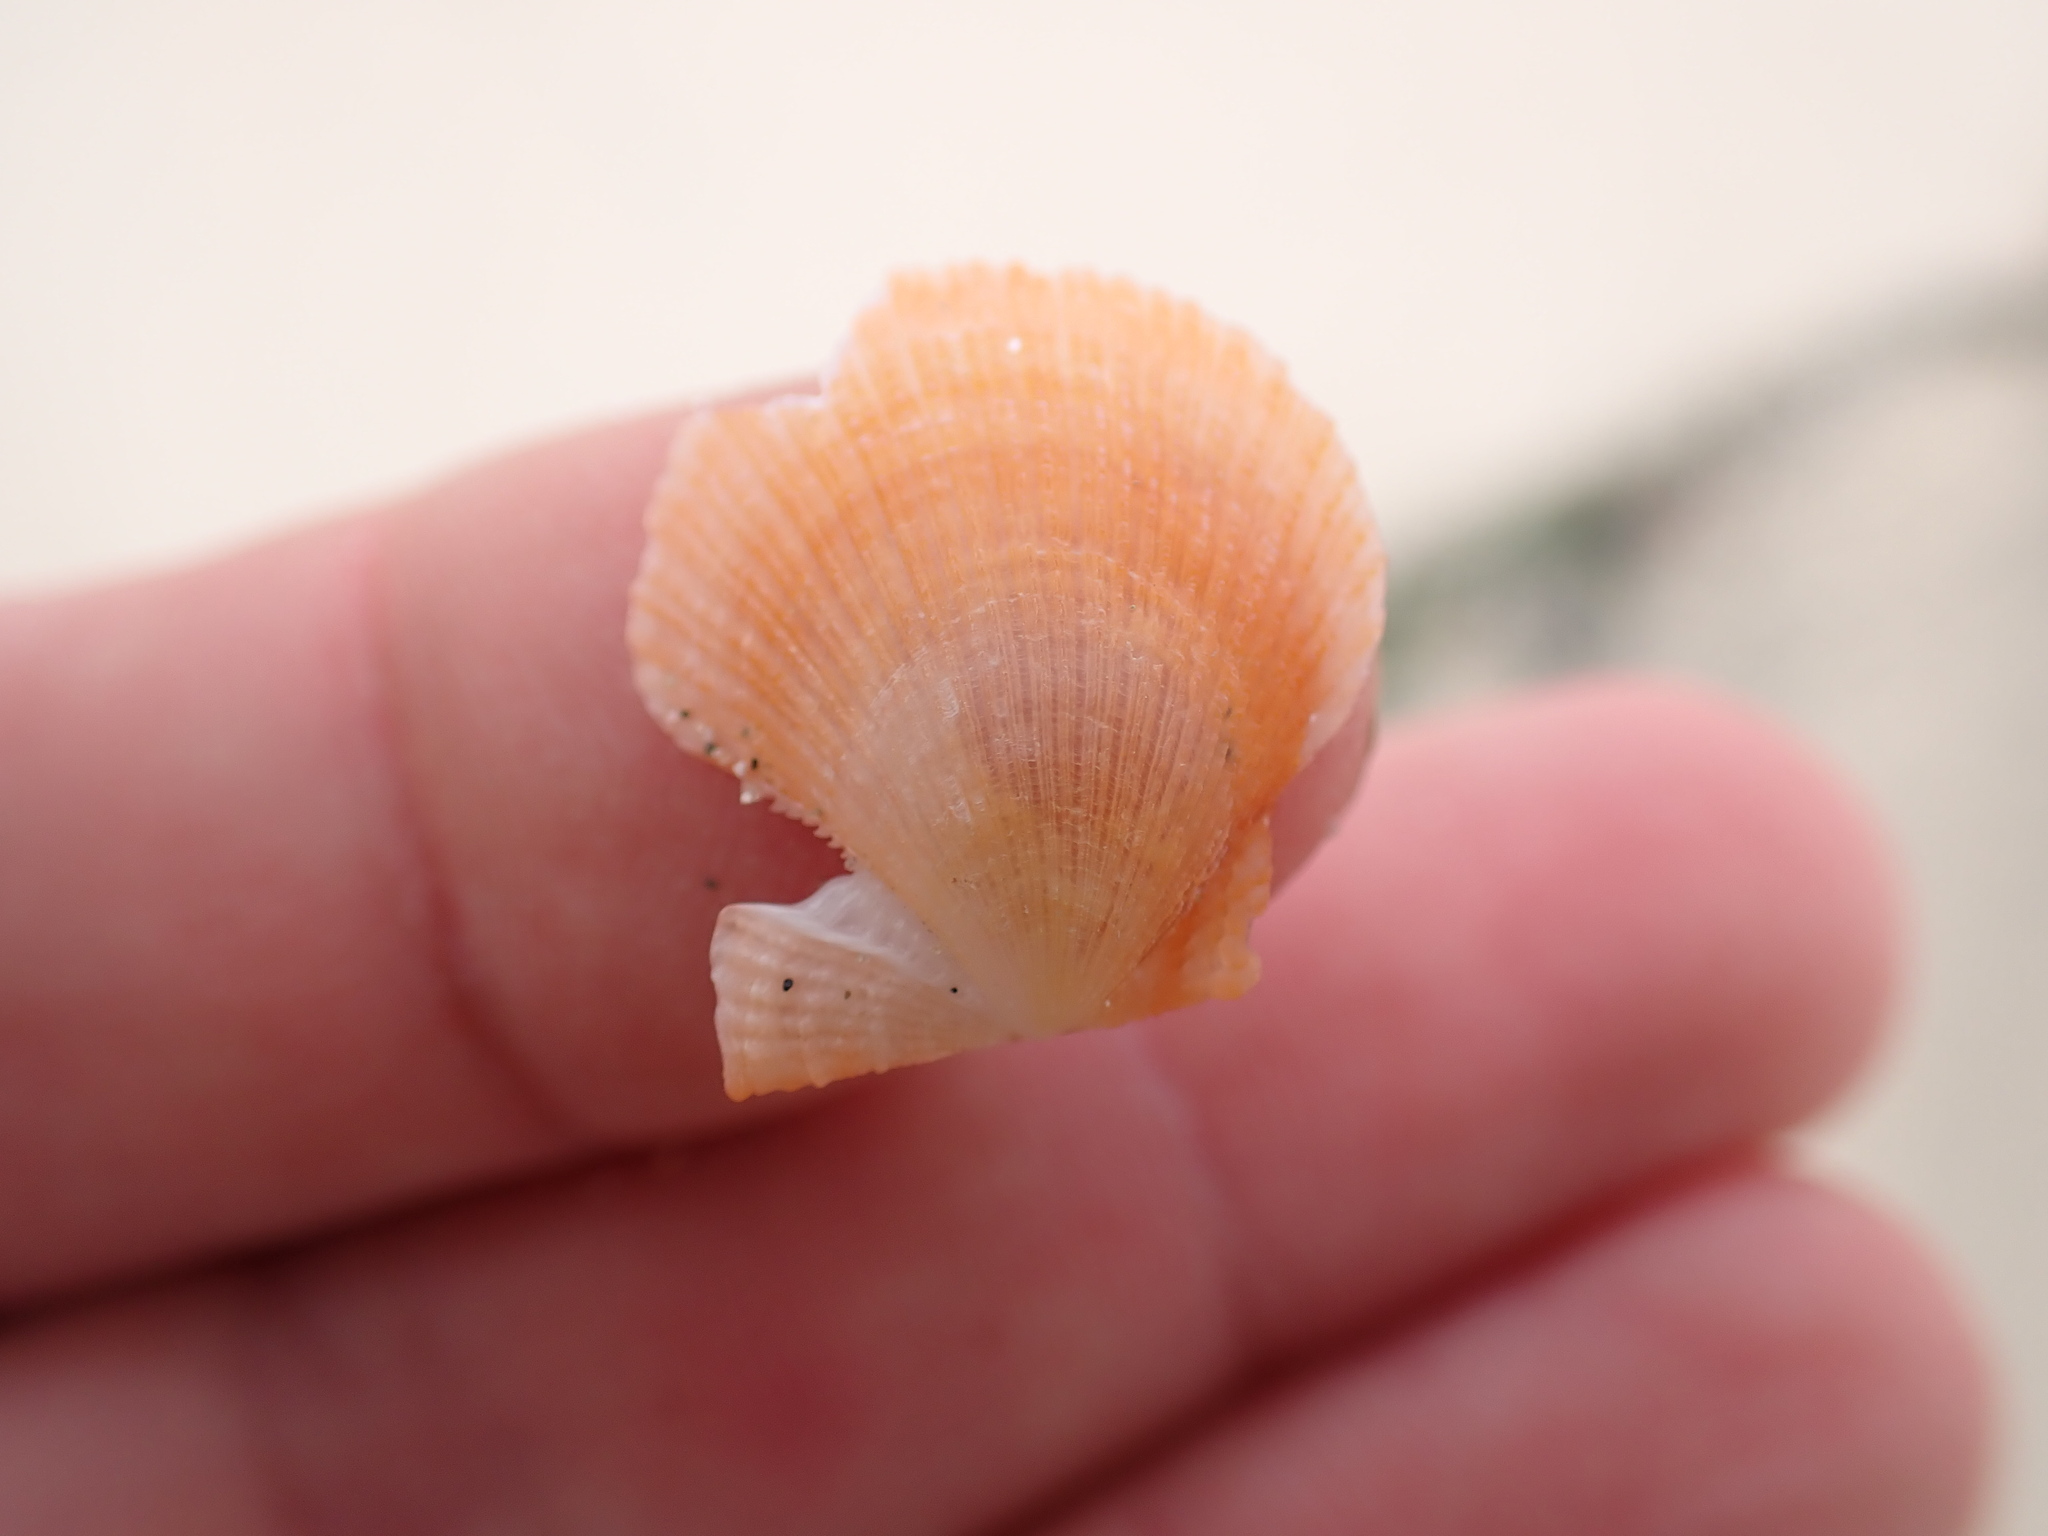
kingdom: Animalia
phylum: Mollusca
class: Bivalvia
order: Pectinida
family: Pectinidae
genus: Crassadoma
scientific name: Crassadoma gigantea
